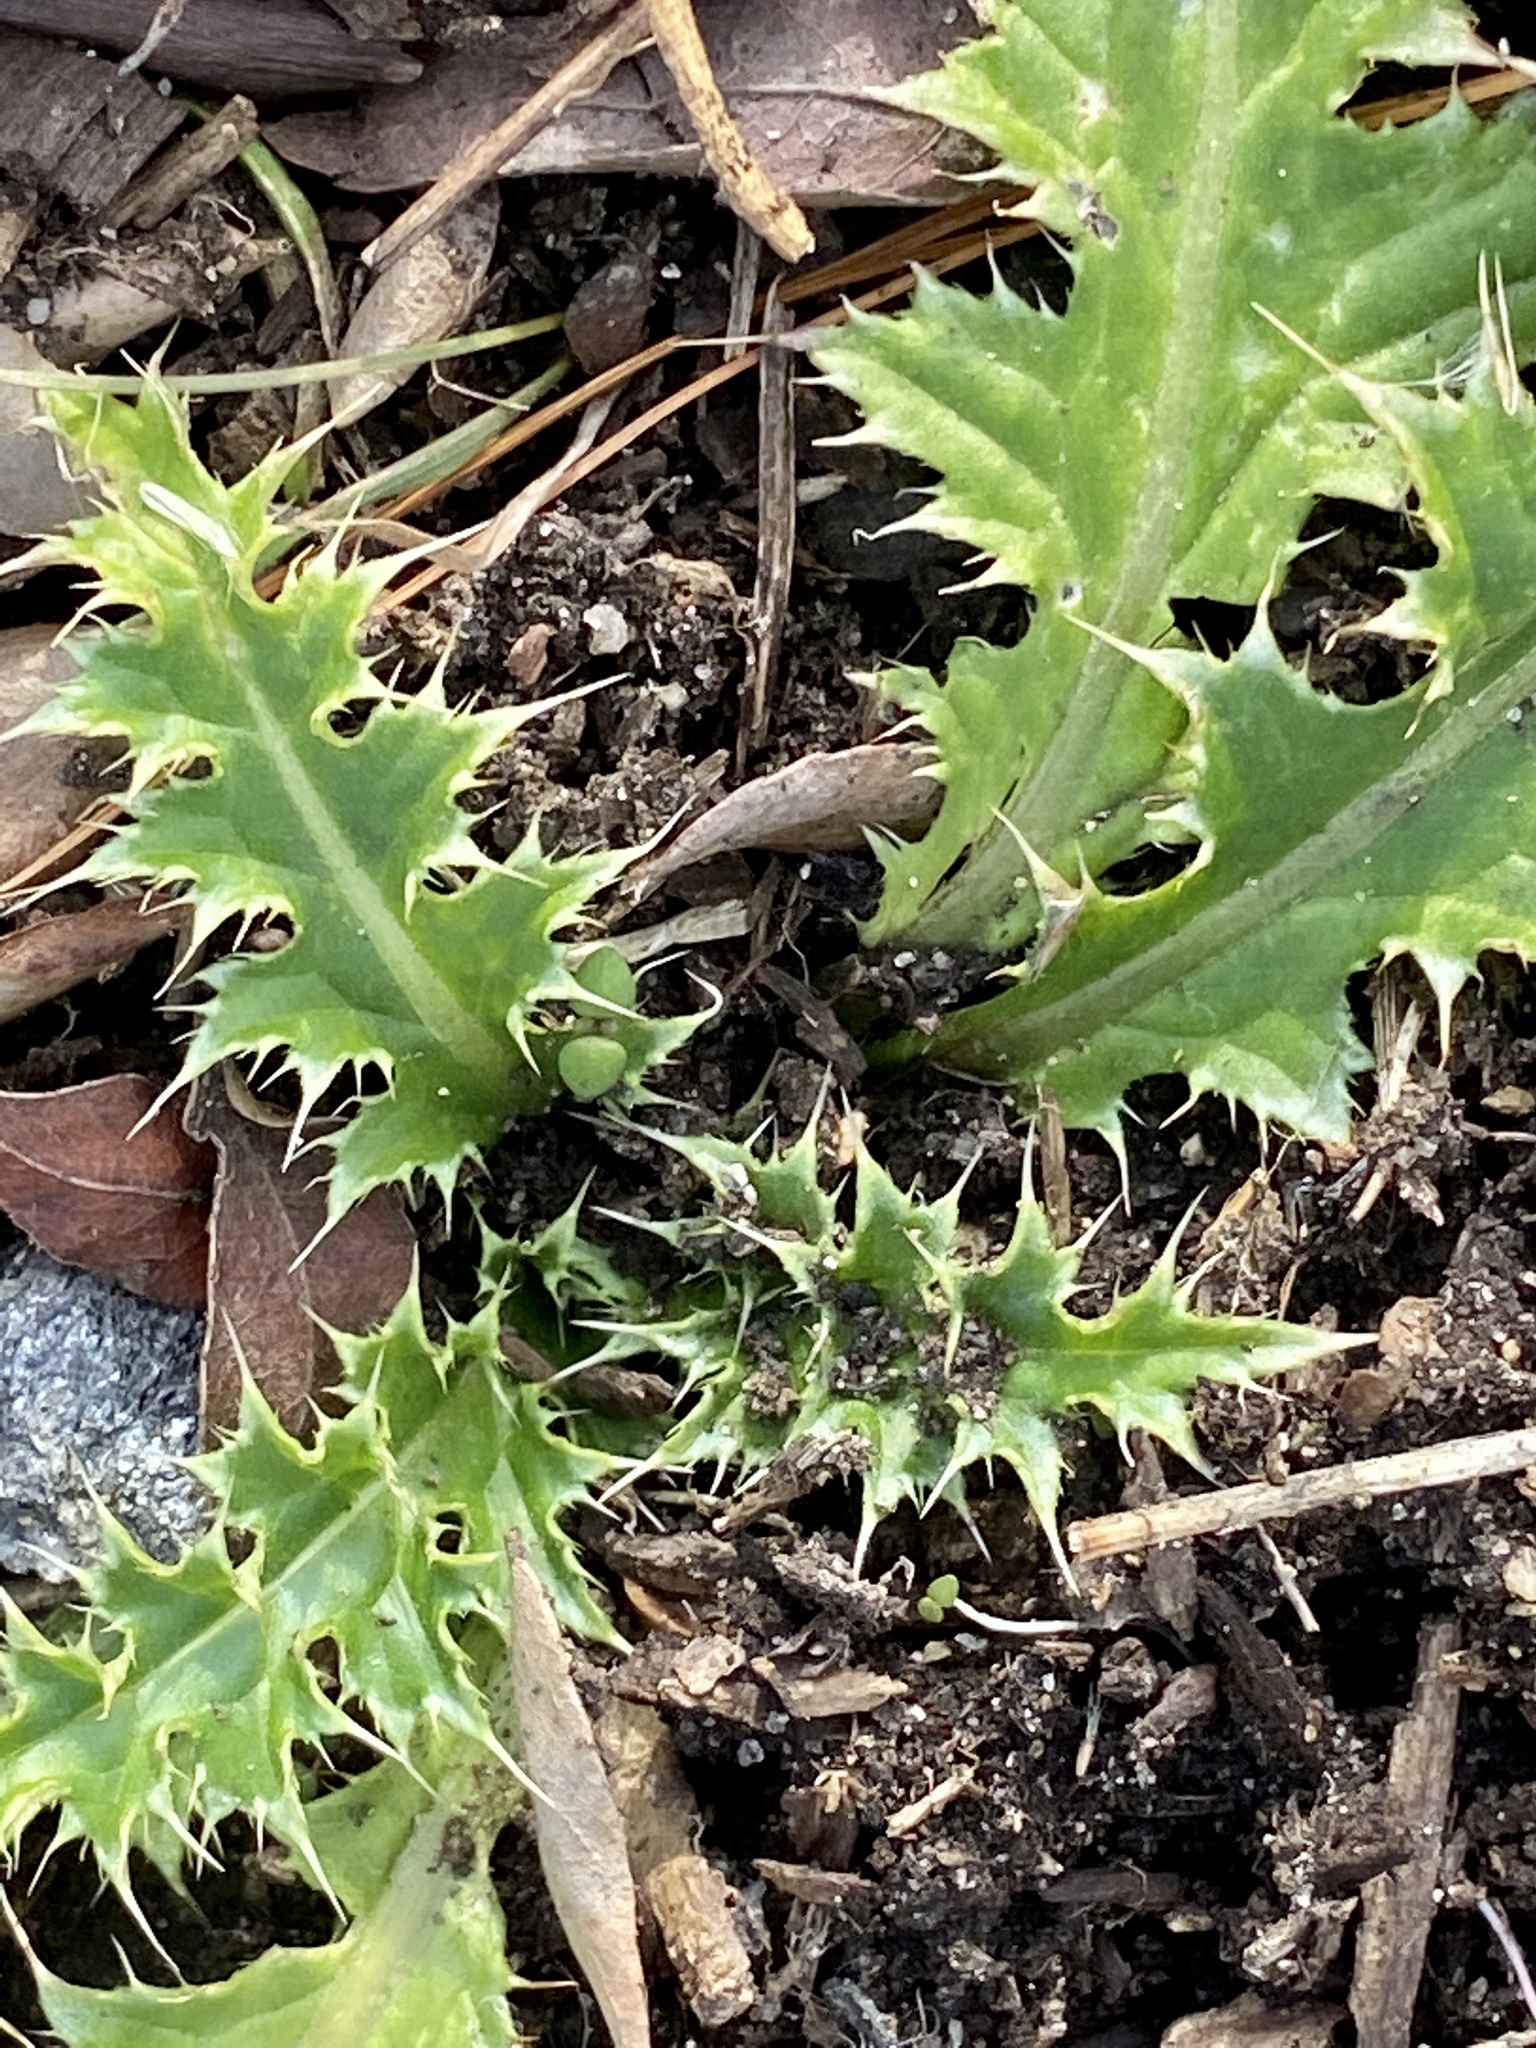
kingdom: Plantae
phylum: Tracheophyta
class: Magnoliopsida
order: Asterales
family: Asteraceae
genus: Carduus
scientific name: Carduus nutans
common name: Musk thistle
